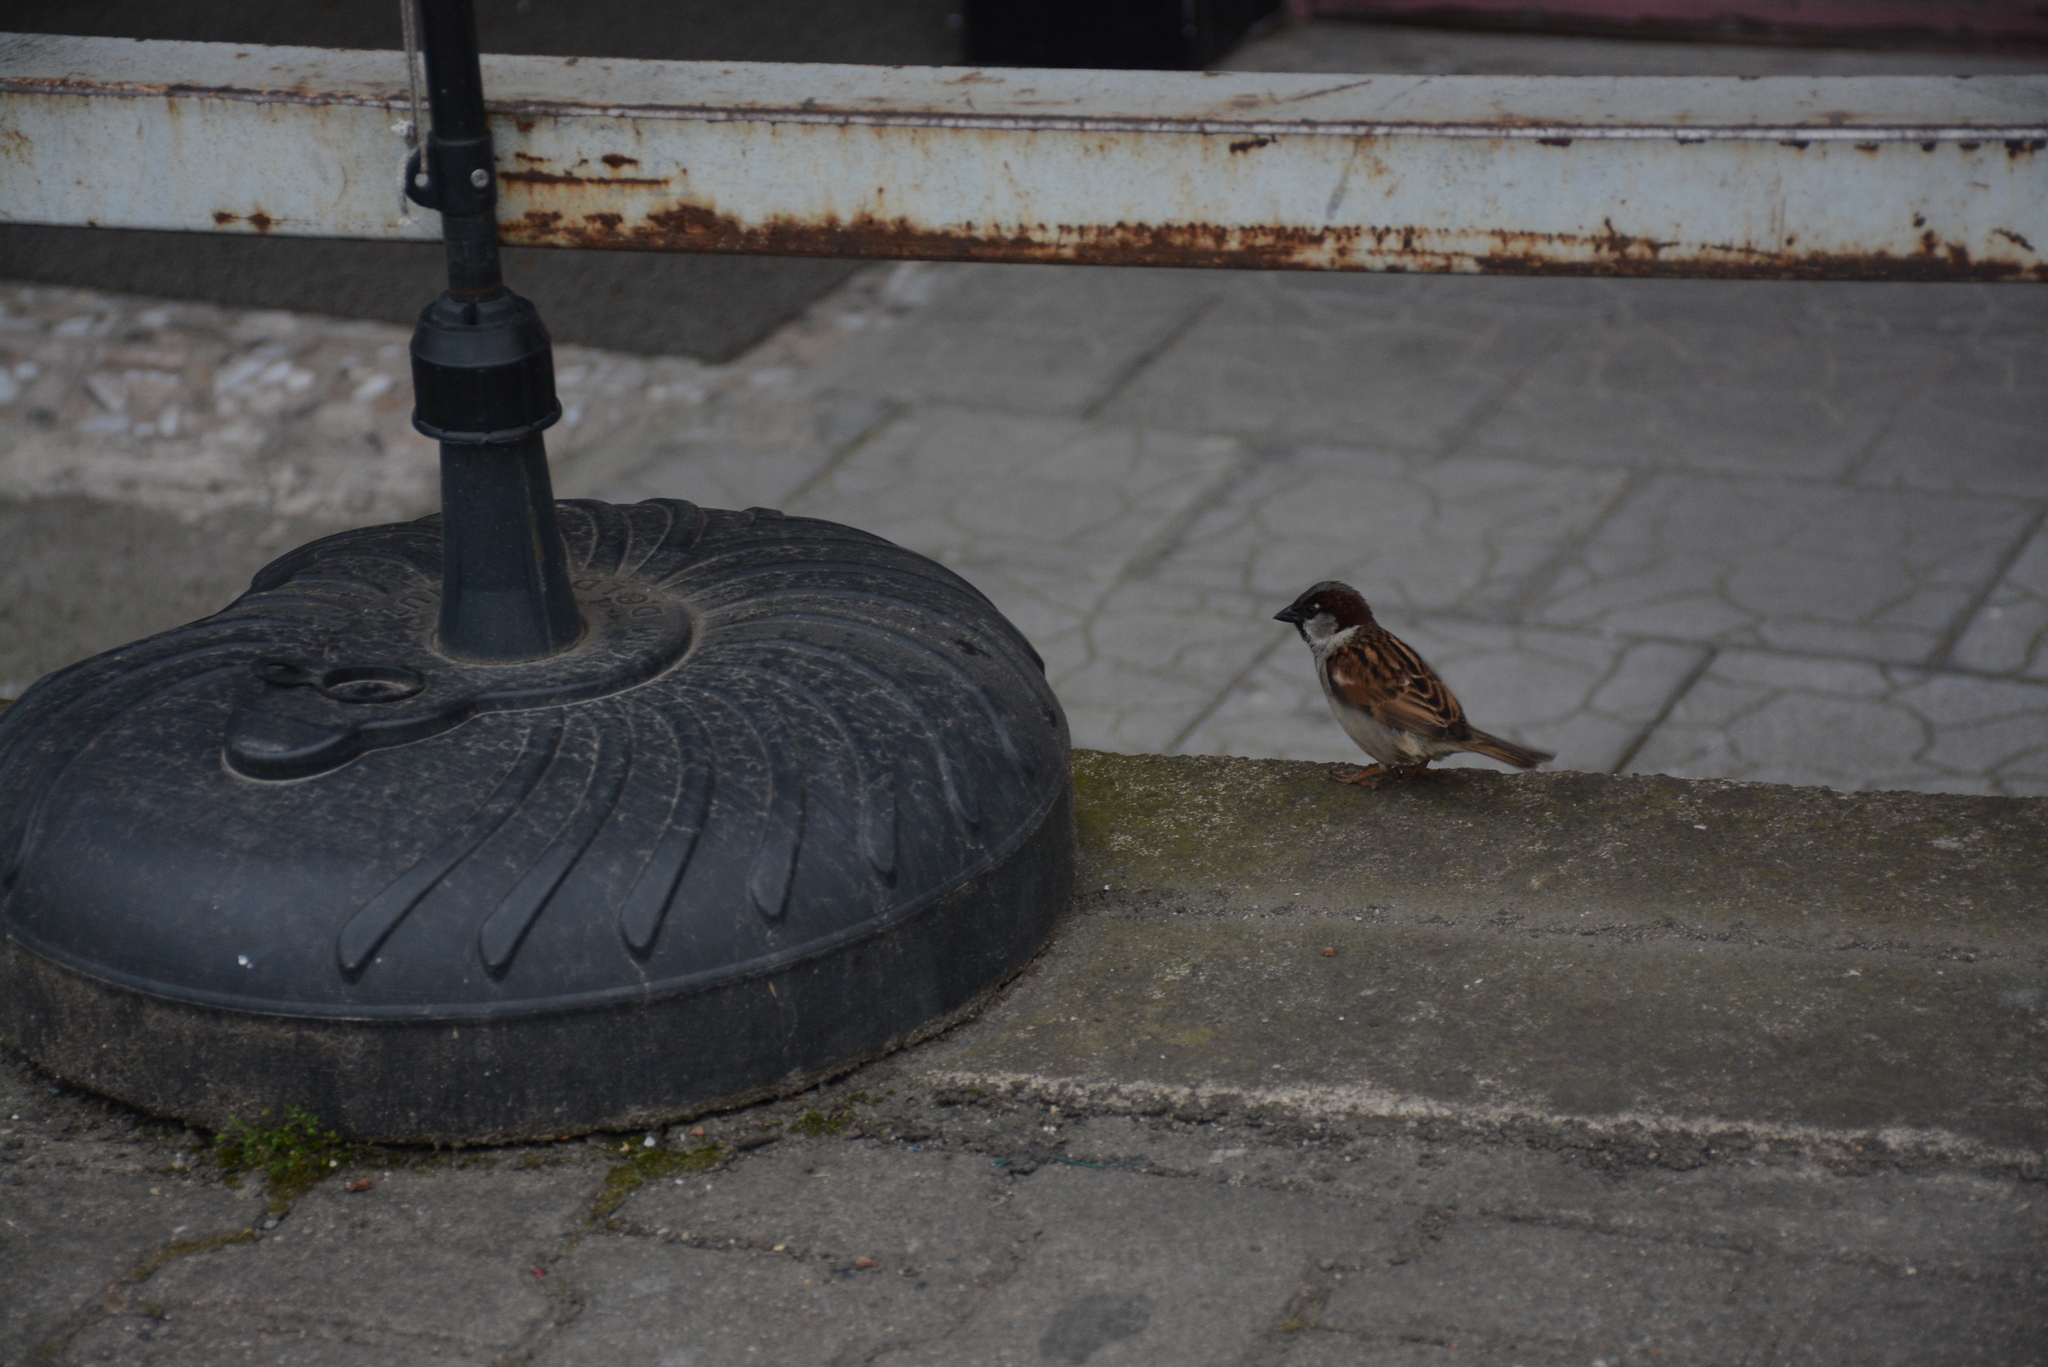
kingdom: Animalia
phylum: Chordata
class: Aves
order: Passeriformes
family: Passeridae
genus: Passer
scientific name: Passer domesticus
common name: House sparrow
